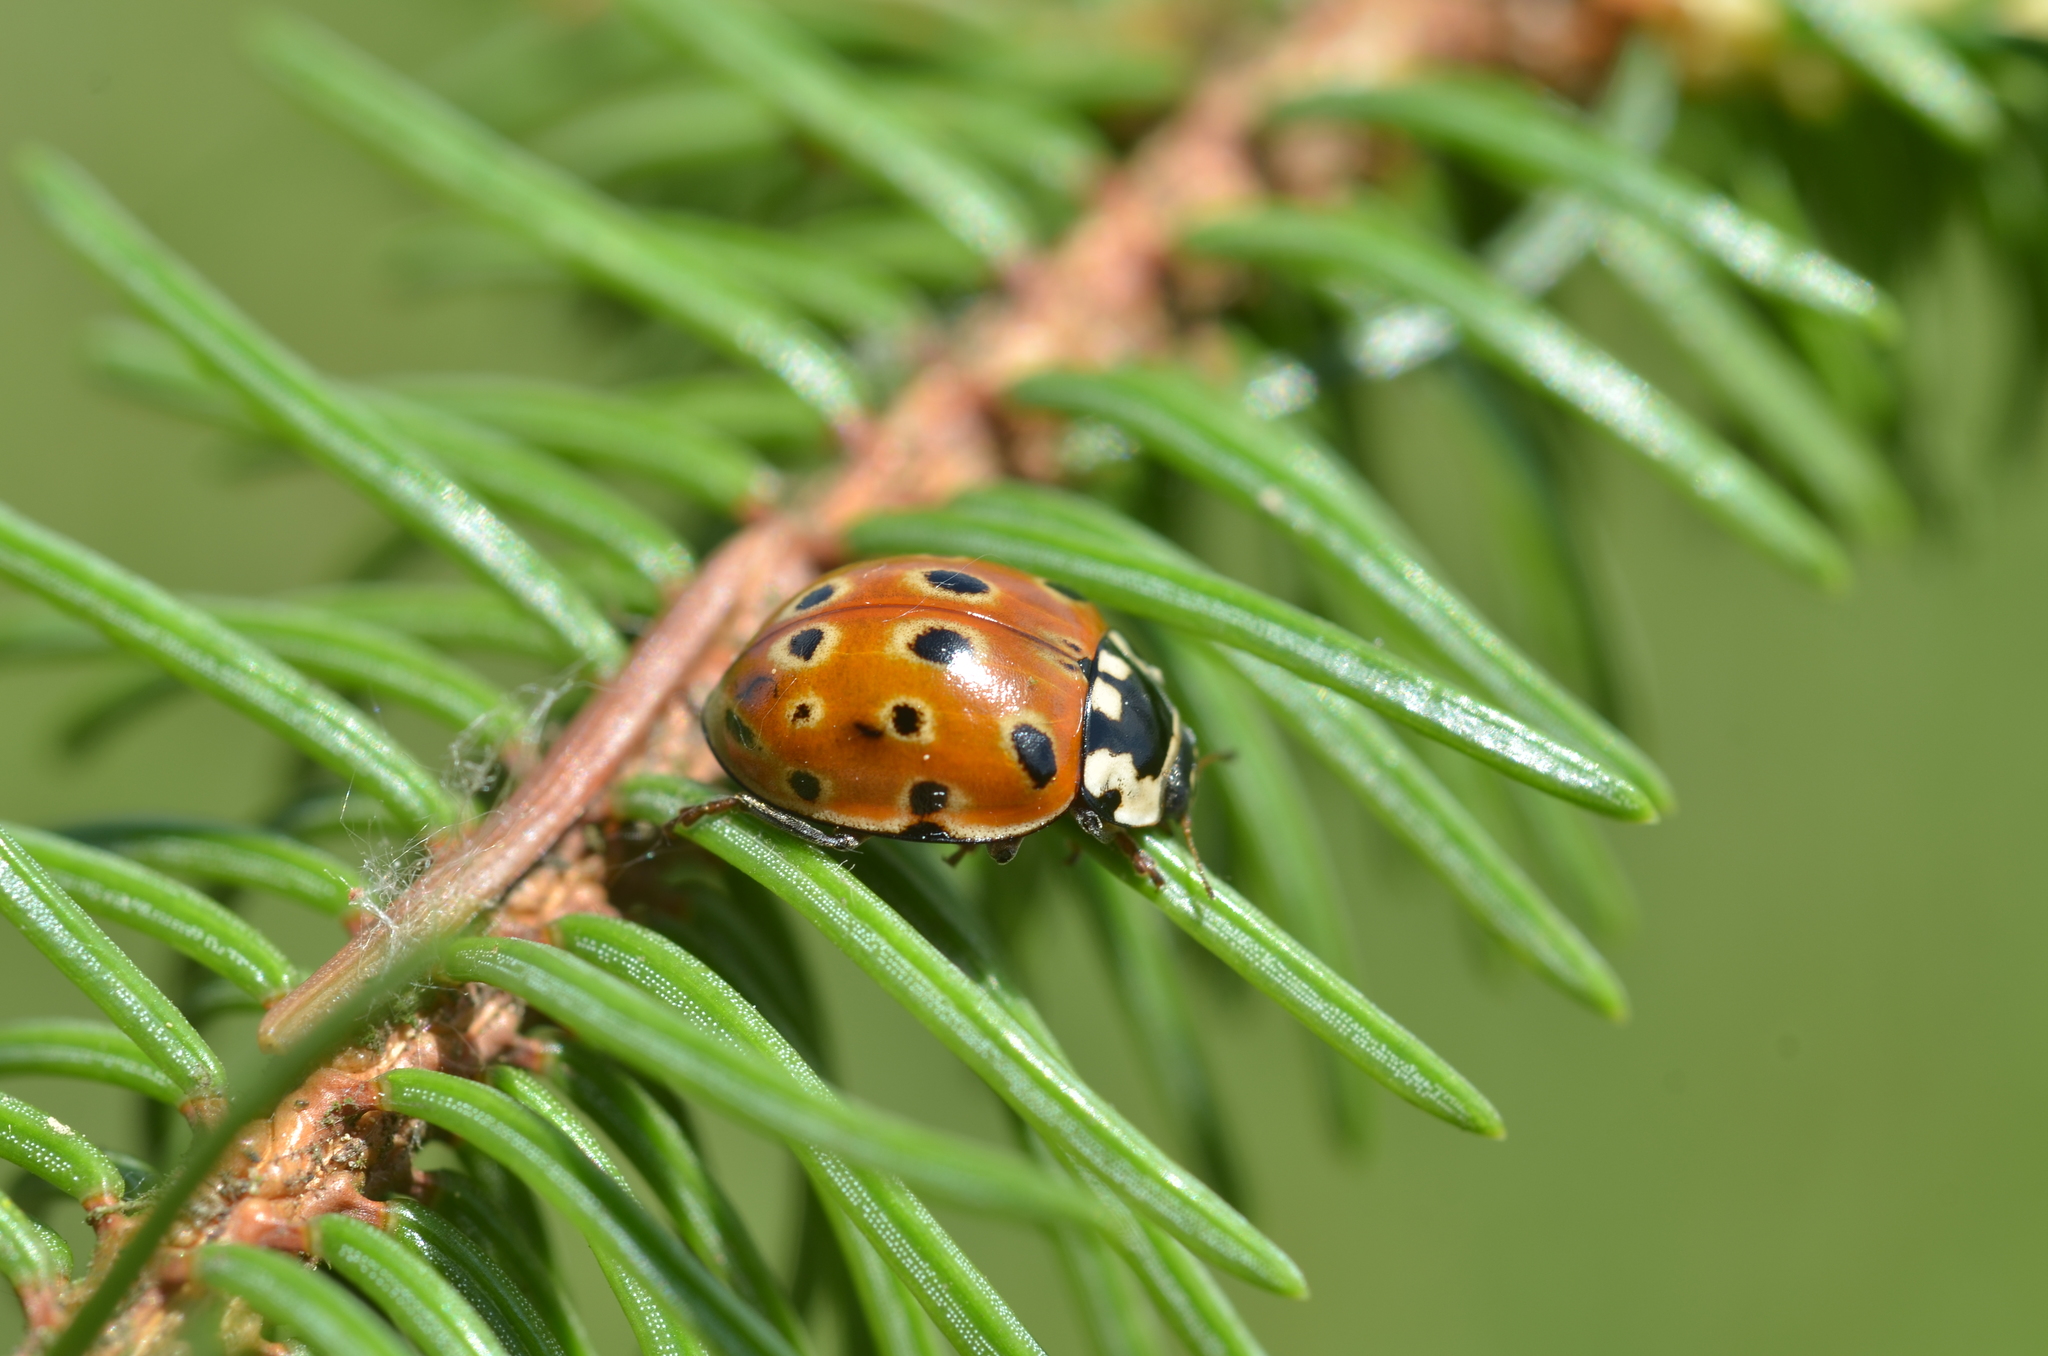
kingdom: Animalia
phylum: Arthropoda
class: Insecta
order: Coleoptera
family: Coccinellidae
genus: Anatis
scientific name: Anatis ocellata
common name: Eyed ladybird
